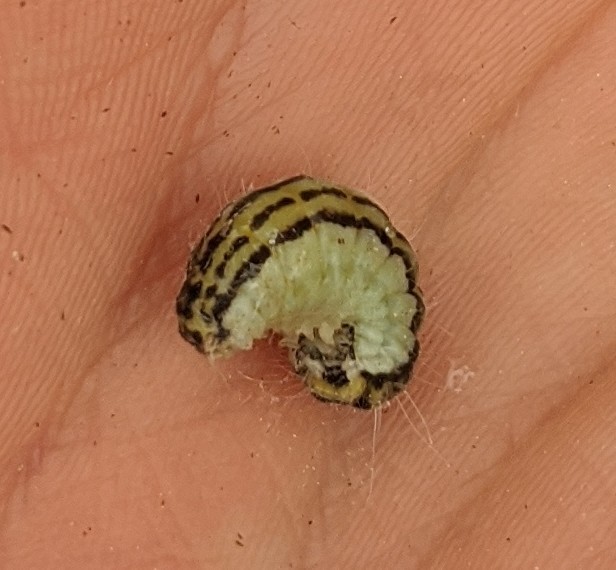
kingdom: Animalia
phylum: Arthropoda
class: Insecta
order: Lepidoptera
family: Zygaenidae
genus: Sinica
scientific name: Sinica sinica
